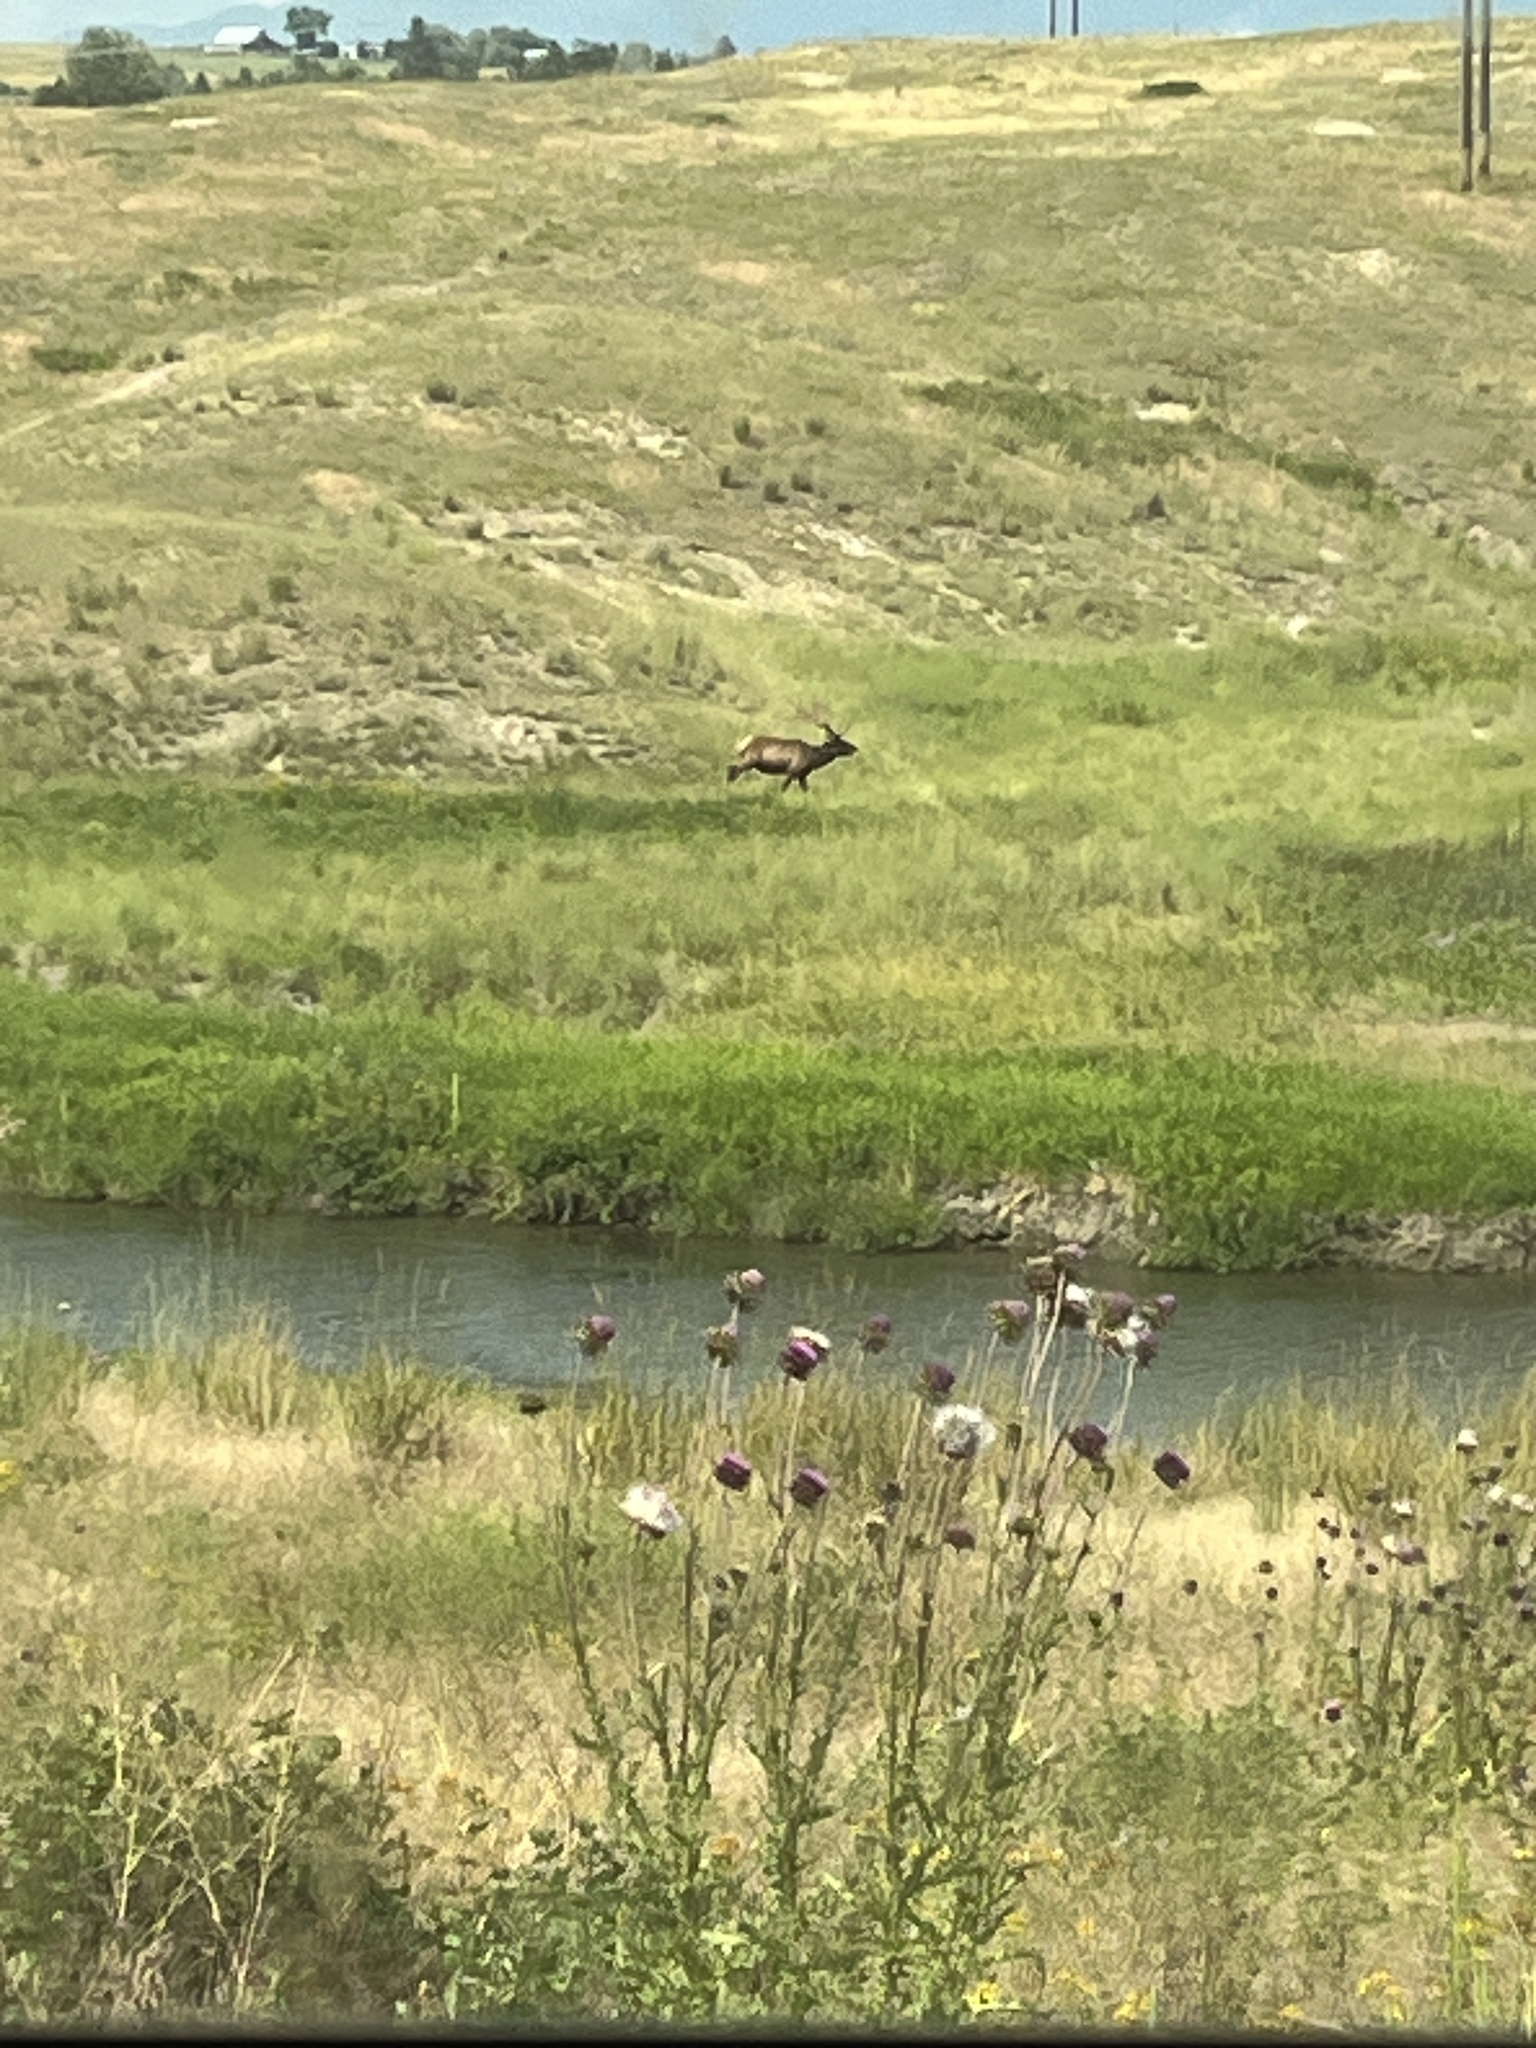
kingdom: Animalia
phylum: Chordata
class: Mammalia
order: Artiodactyla
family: Cervidae
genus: Cervus
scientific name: Cervus elaphus
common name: Red deer
